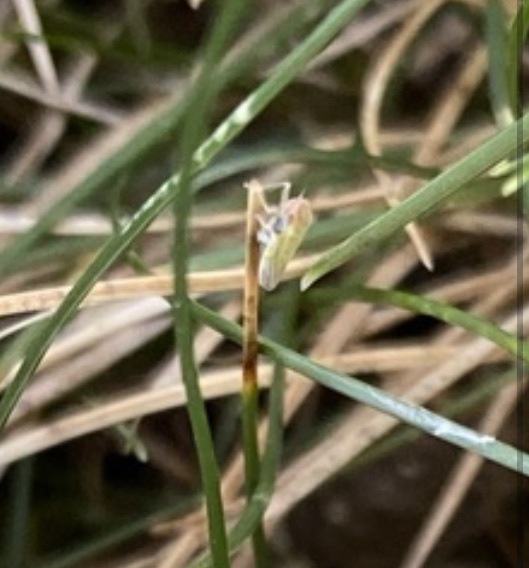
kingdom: Animalia
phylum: Arthropoda
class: Insecta
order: Hemiptera
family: Cicadellidae
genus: Dikraneura
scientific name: Dikraneura arizona
